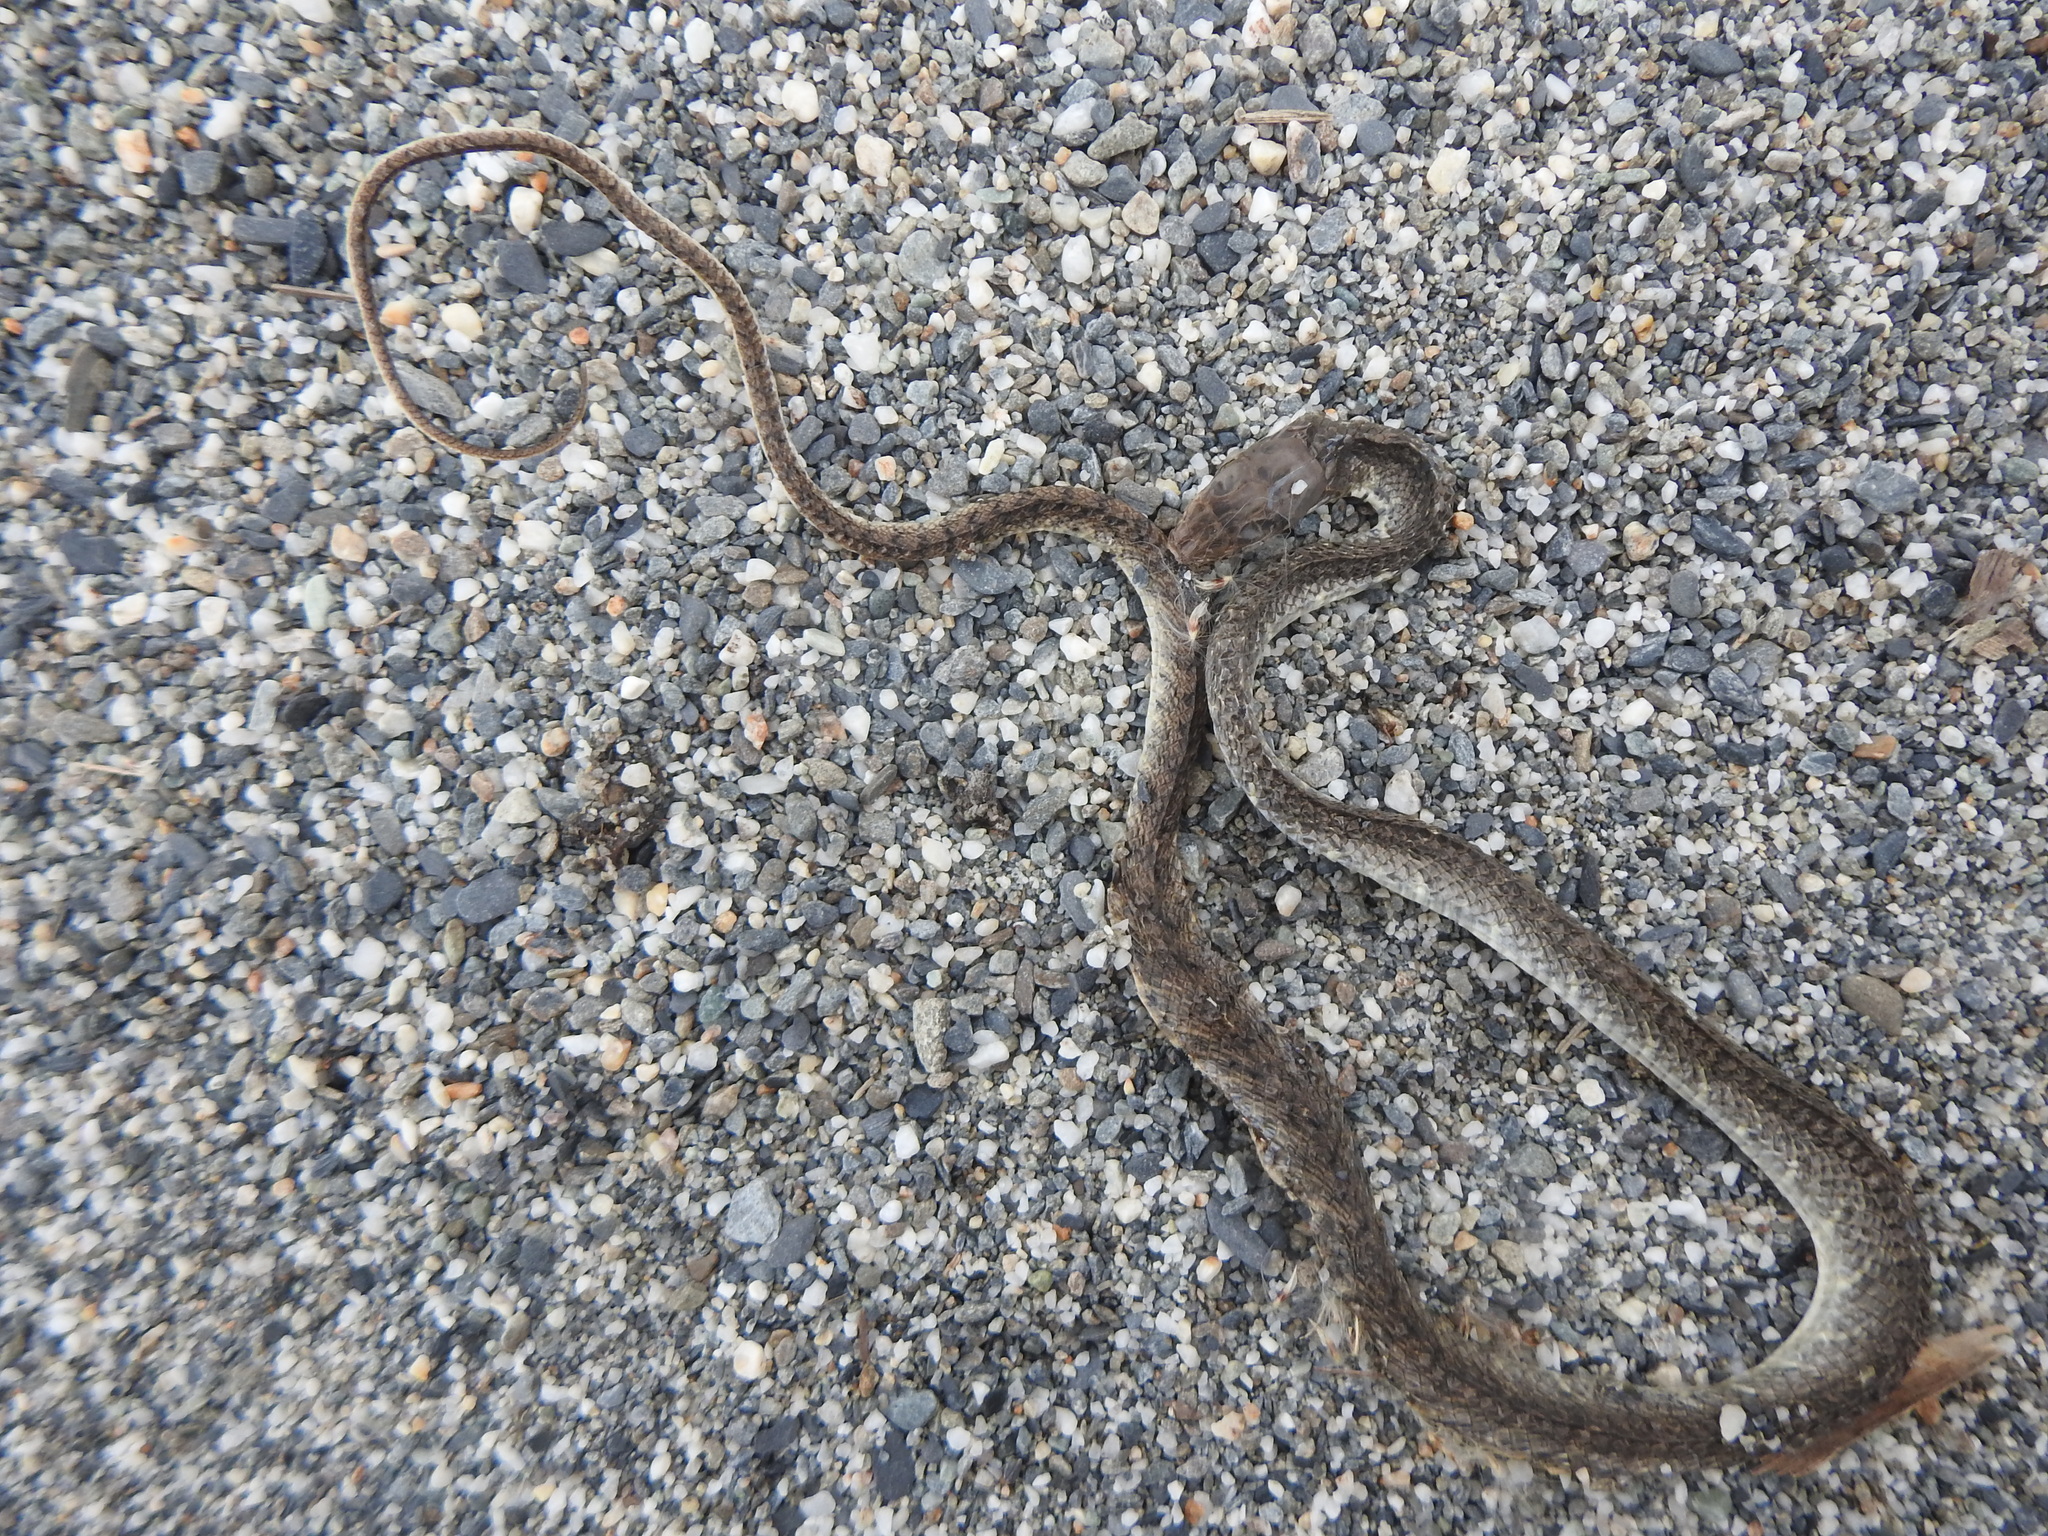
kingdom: Animalia
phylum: Chordata
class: Squamata
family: Colubridae
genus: Ptyas
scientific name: Ptyas mucosa
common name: Oriental ratsnake
